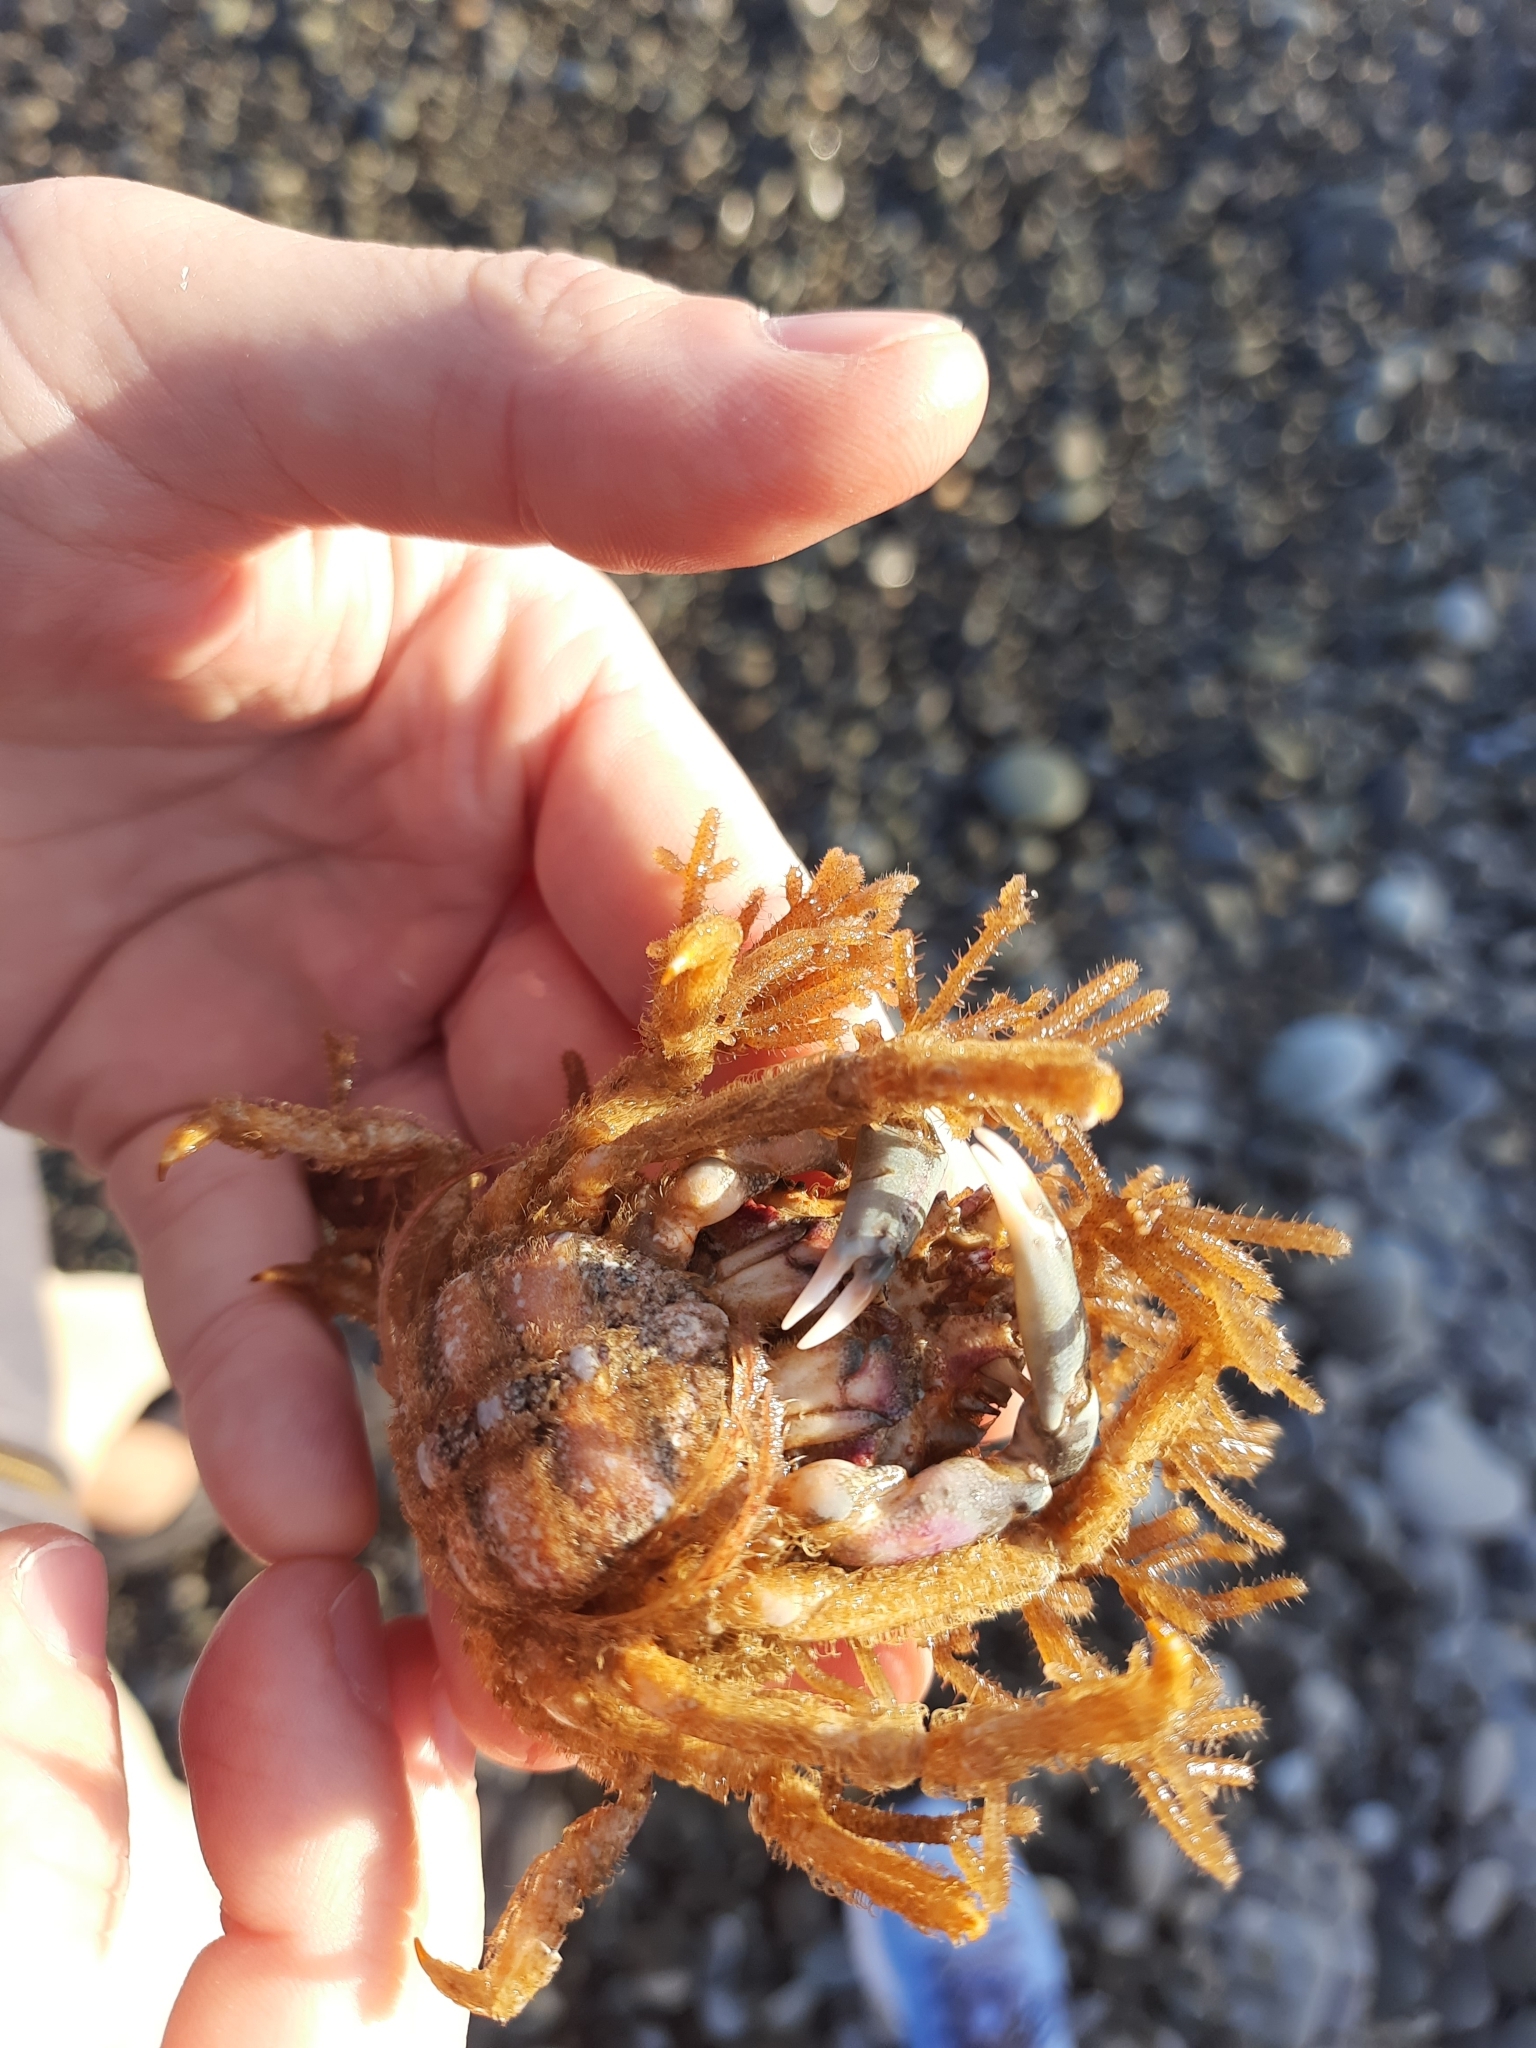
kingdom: Animalia
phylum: Arthropoda
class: Malacostraca
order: Decapoda
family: Majidae
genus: Notomithrax
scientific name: Notomithrax minor
